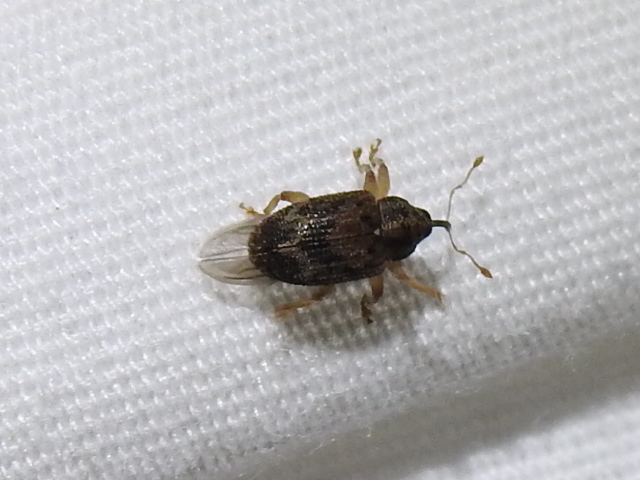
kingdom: Animalia
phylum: Arthropoda
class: Insecta
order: Coleoptera
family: Curculionidae
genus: Thysanocnemis
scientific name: Thysanocnemis bischoffi
